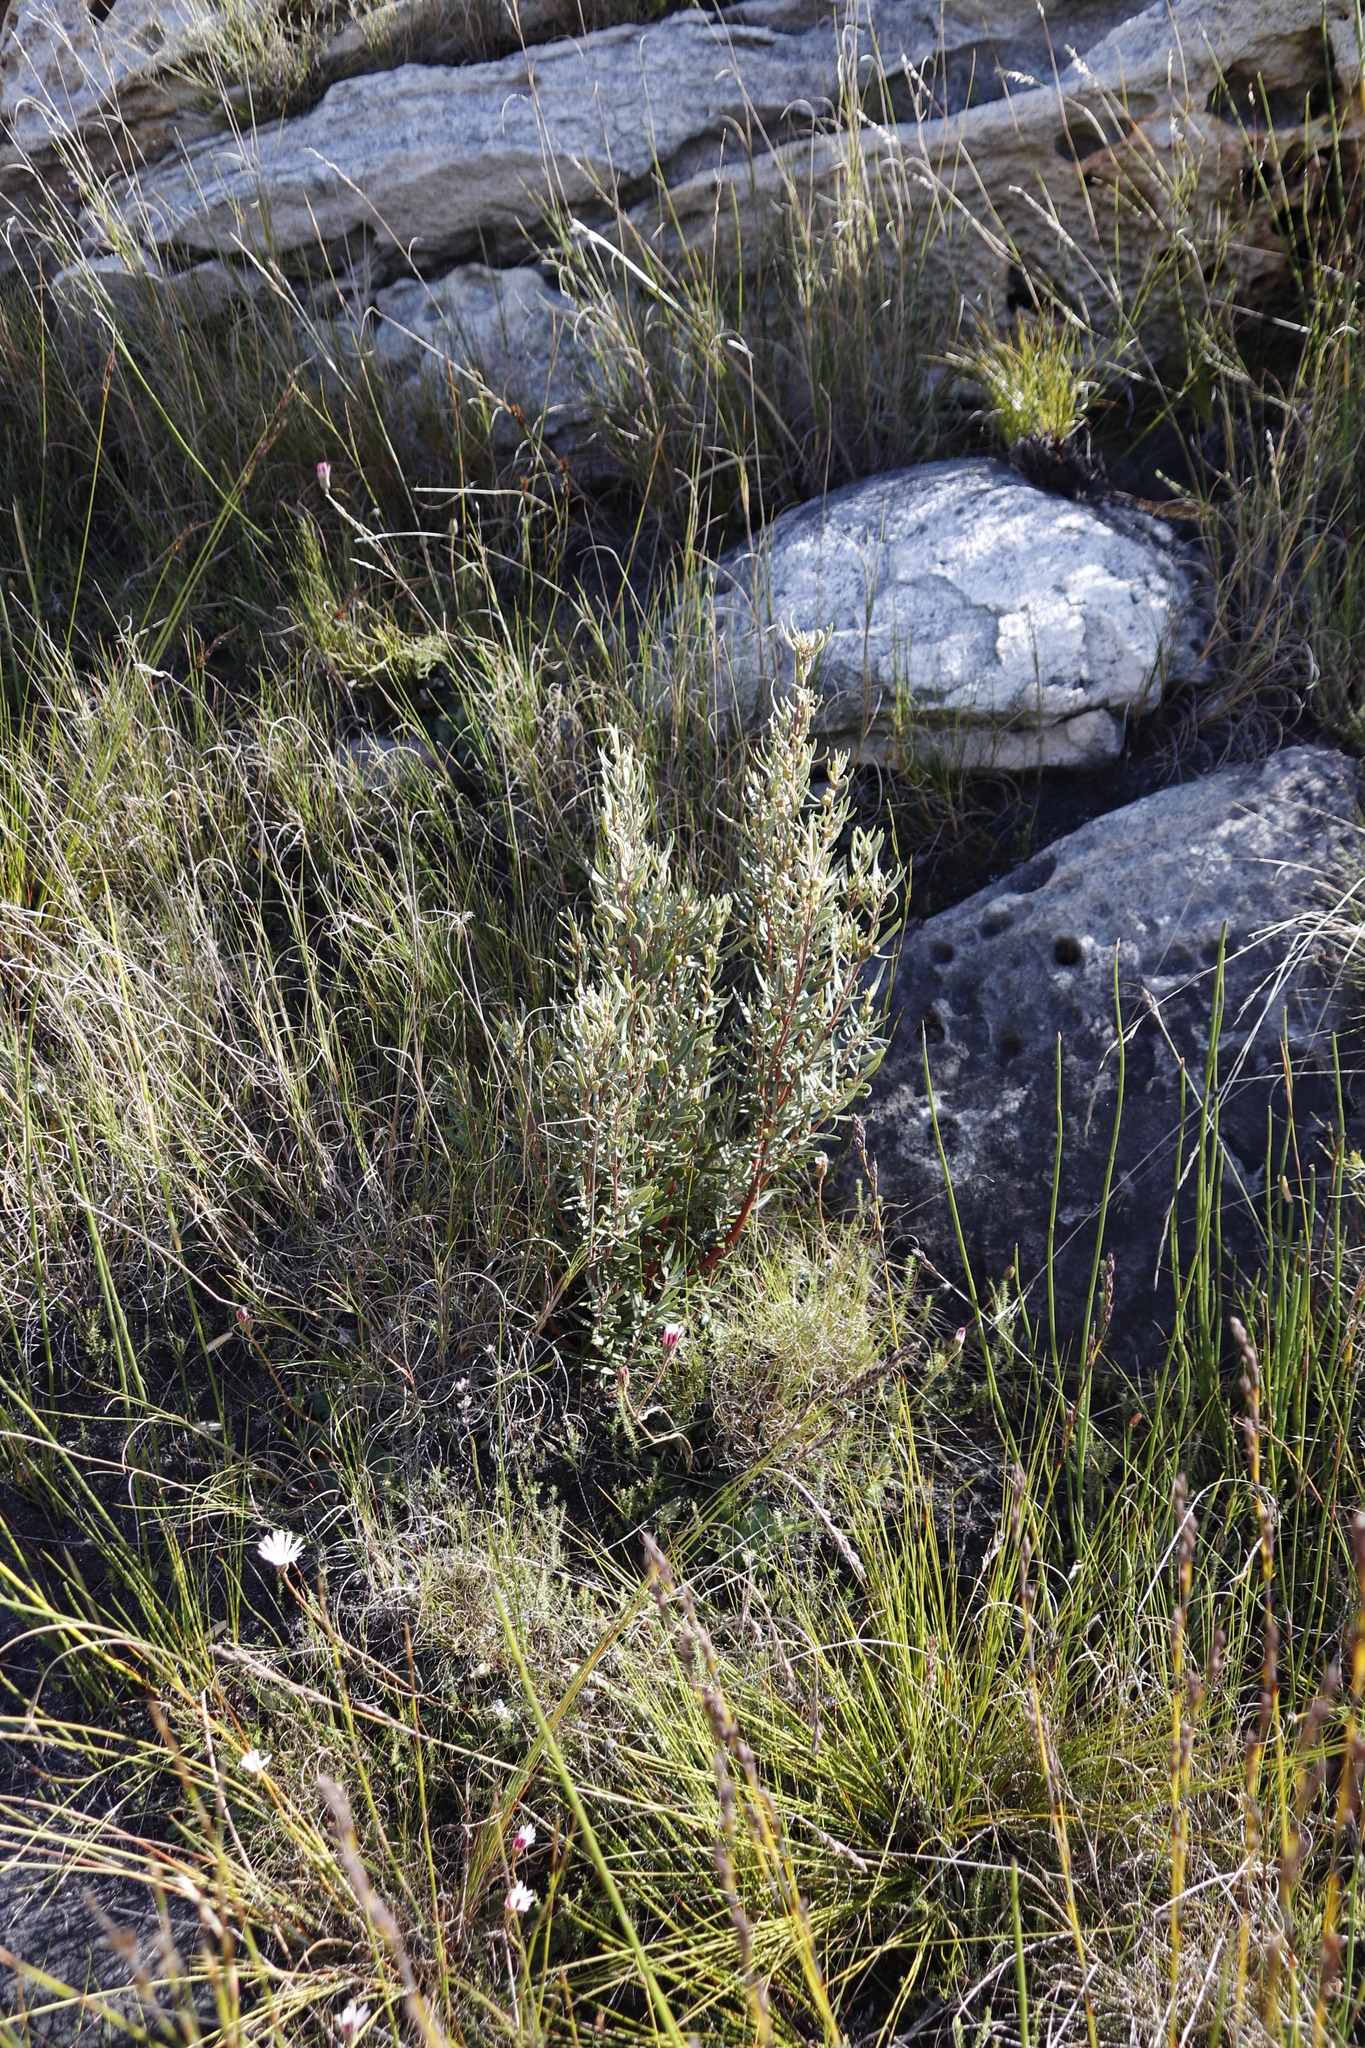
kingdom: Plantae
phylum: Tracheophyta
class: Magnoliopsida
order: Cornales
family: Grubbiaceae
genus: Grubbia
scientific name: Grubbia tomentosa
